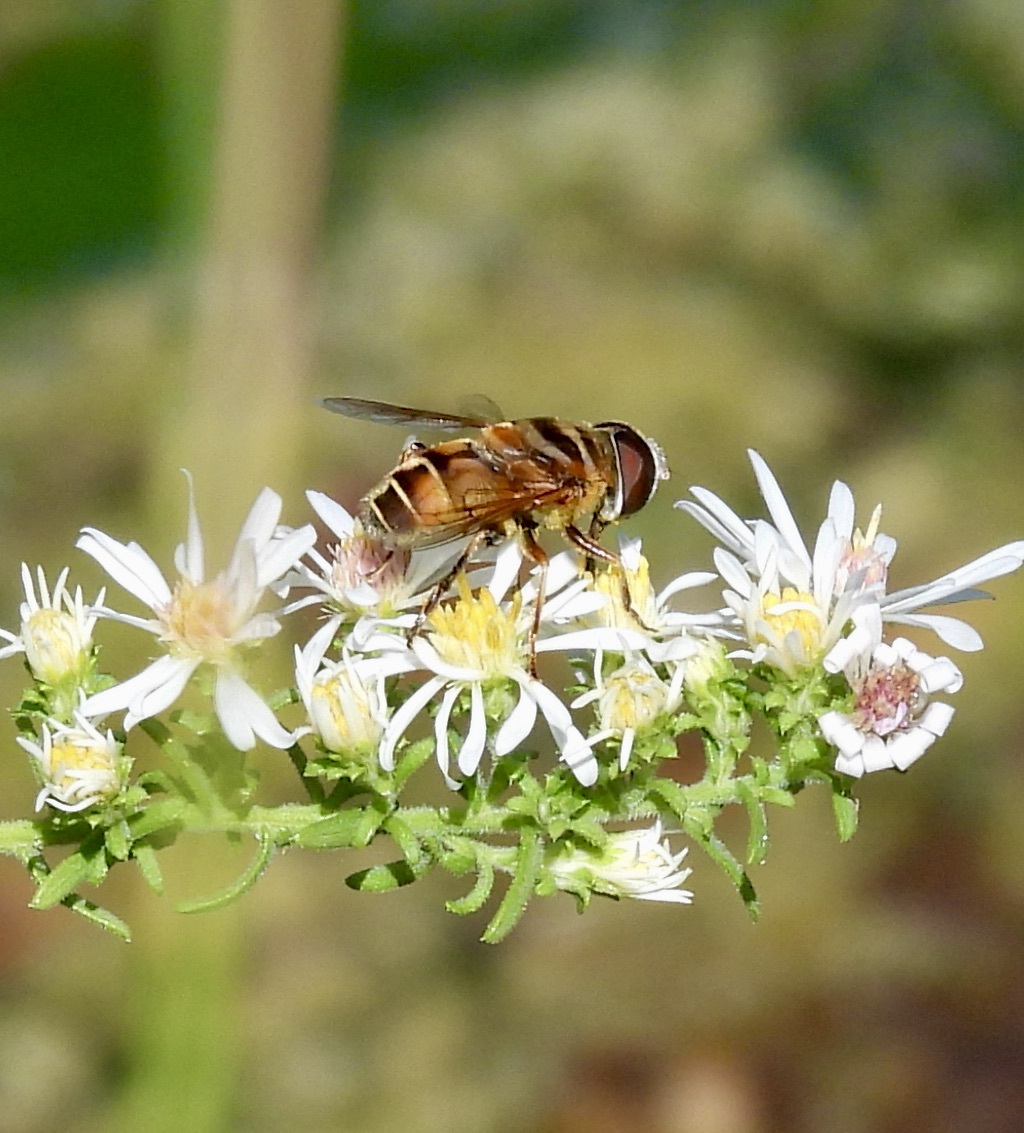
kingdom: Animalia
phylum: Arthropoda
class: Insecta
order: Diptera
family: Syrphidae
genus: Palpada
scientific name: Palpada vinetorum
